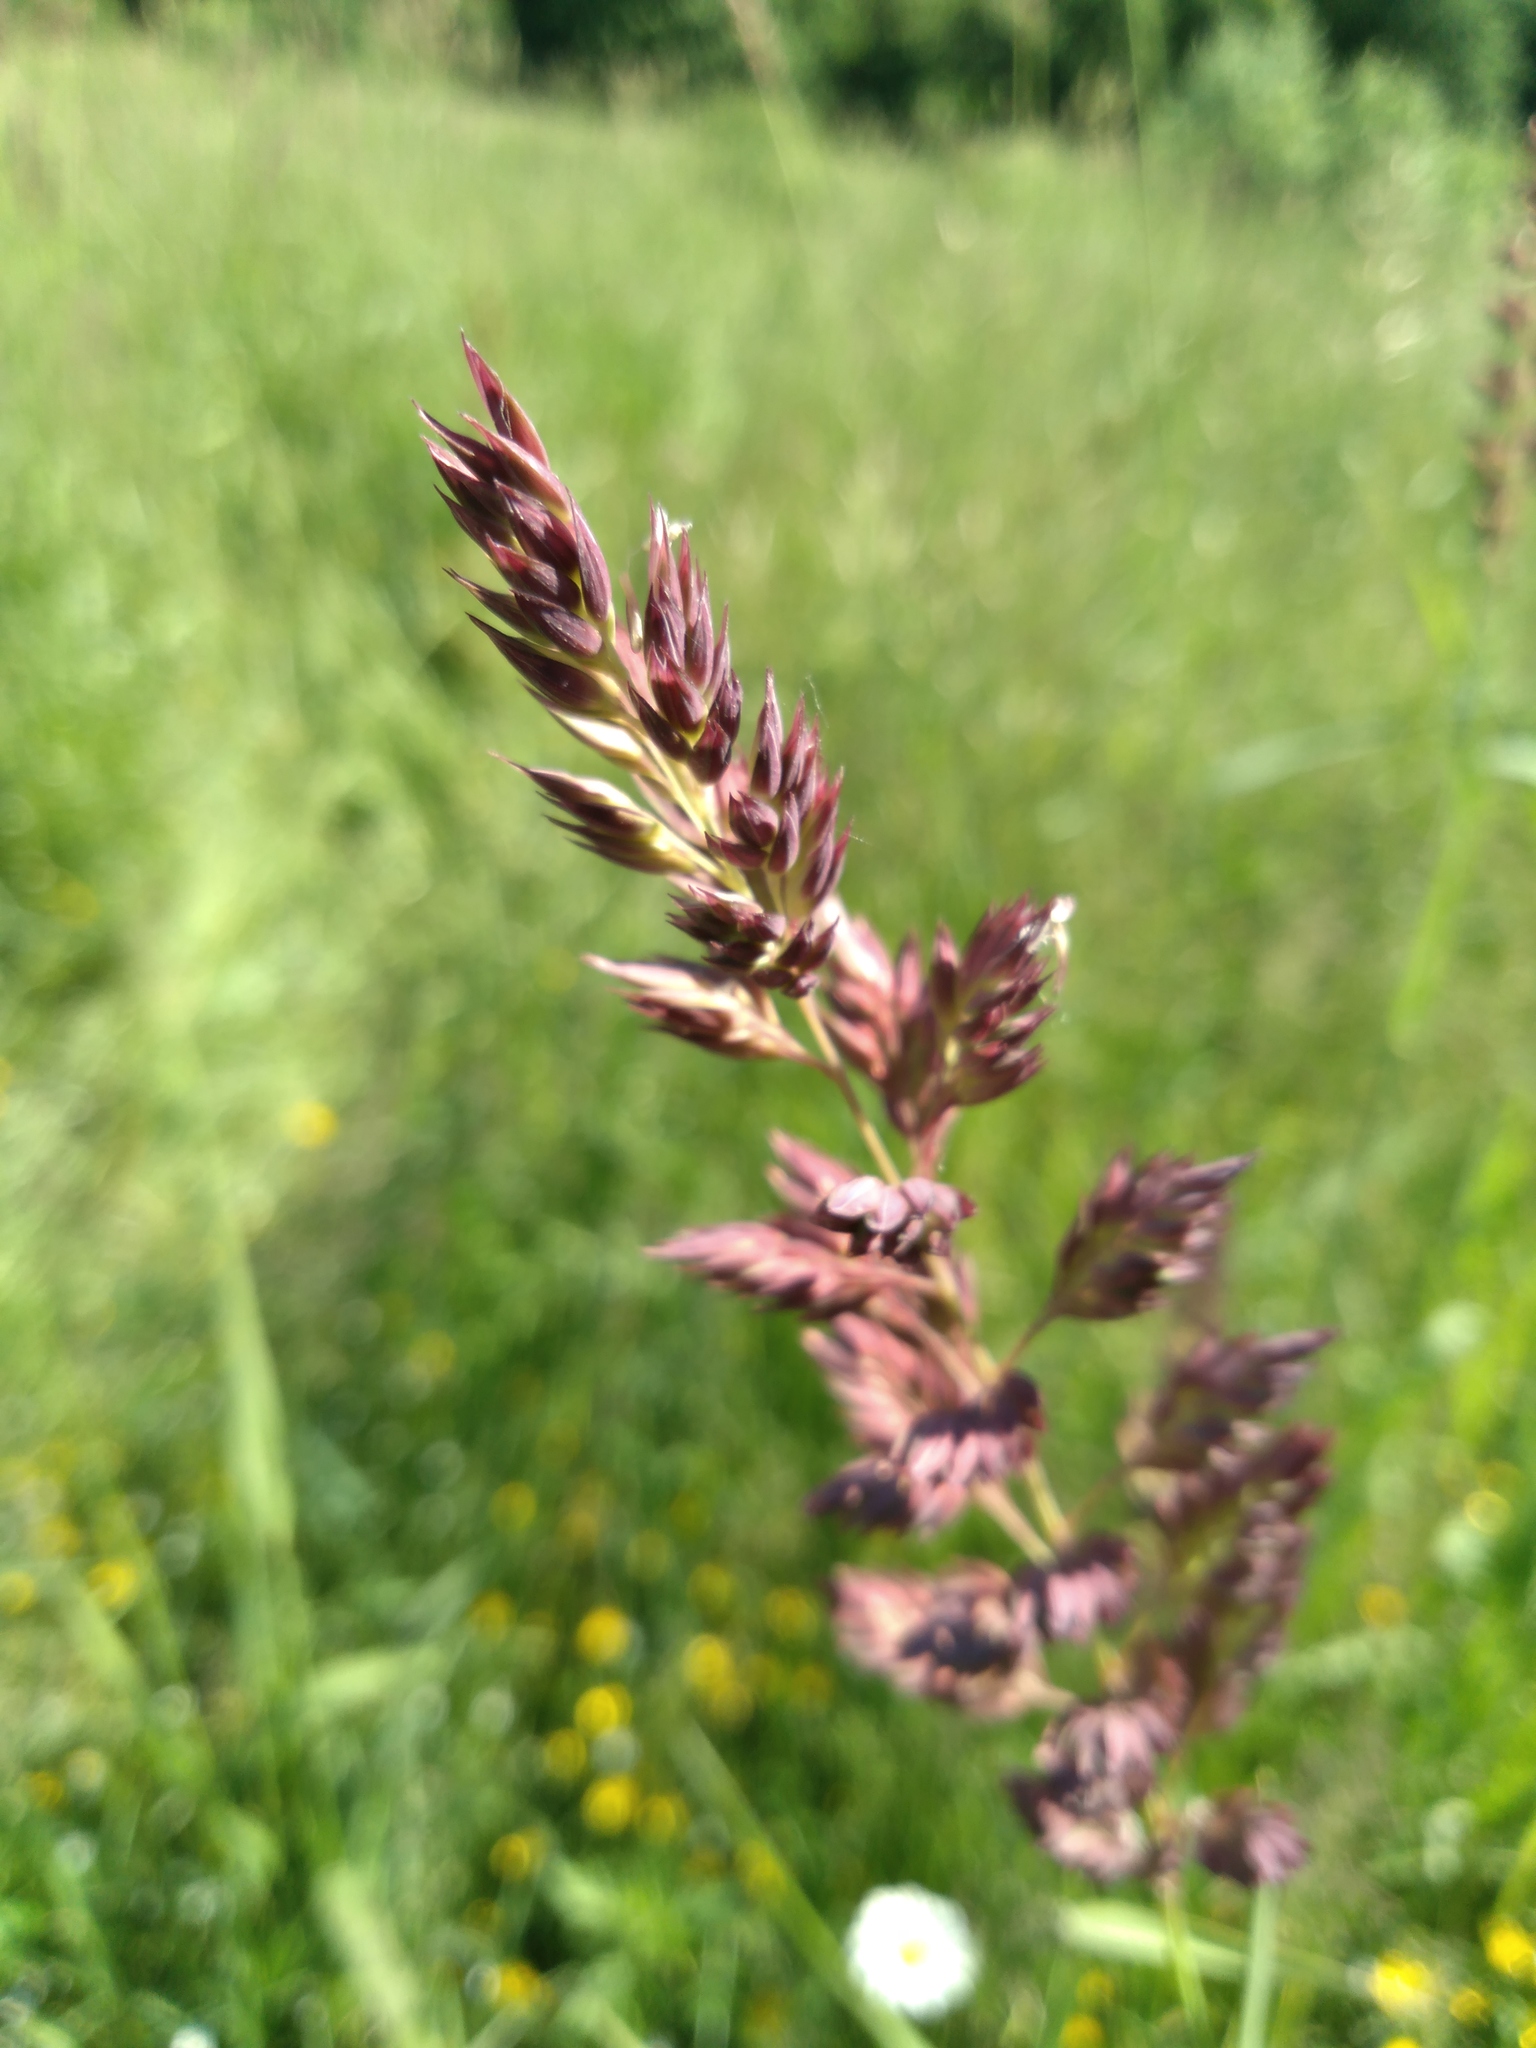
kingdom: Plantae
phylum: Tracheophyta
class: Liliopsida
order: Poales
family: Poaceae
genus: Phalaris
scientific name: Phalaris arundinacea
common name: Reed canary-grass
